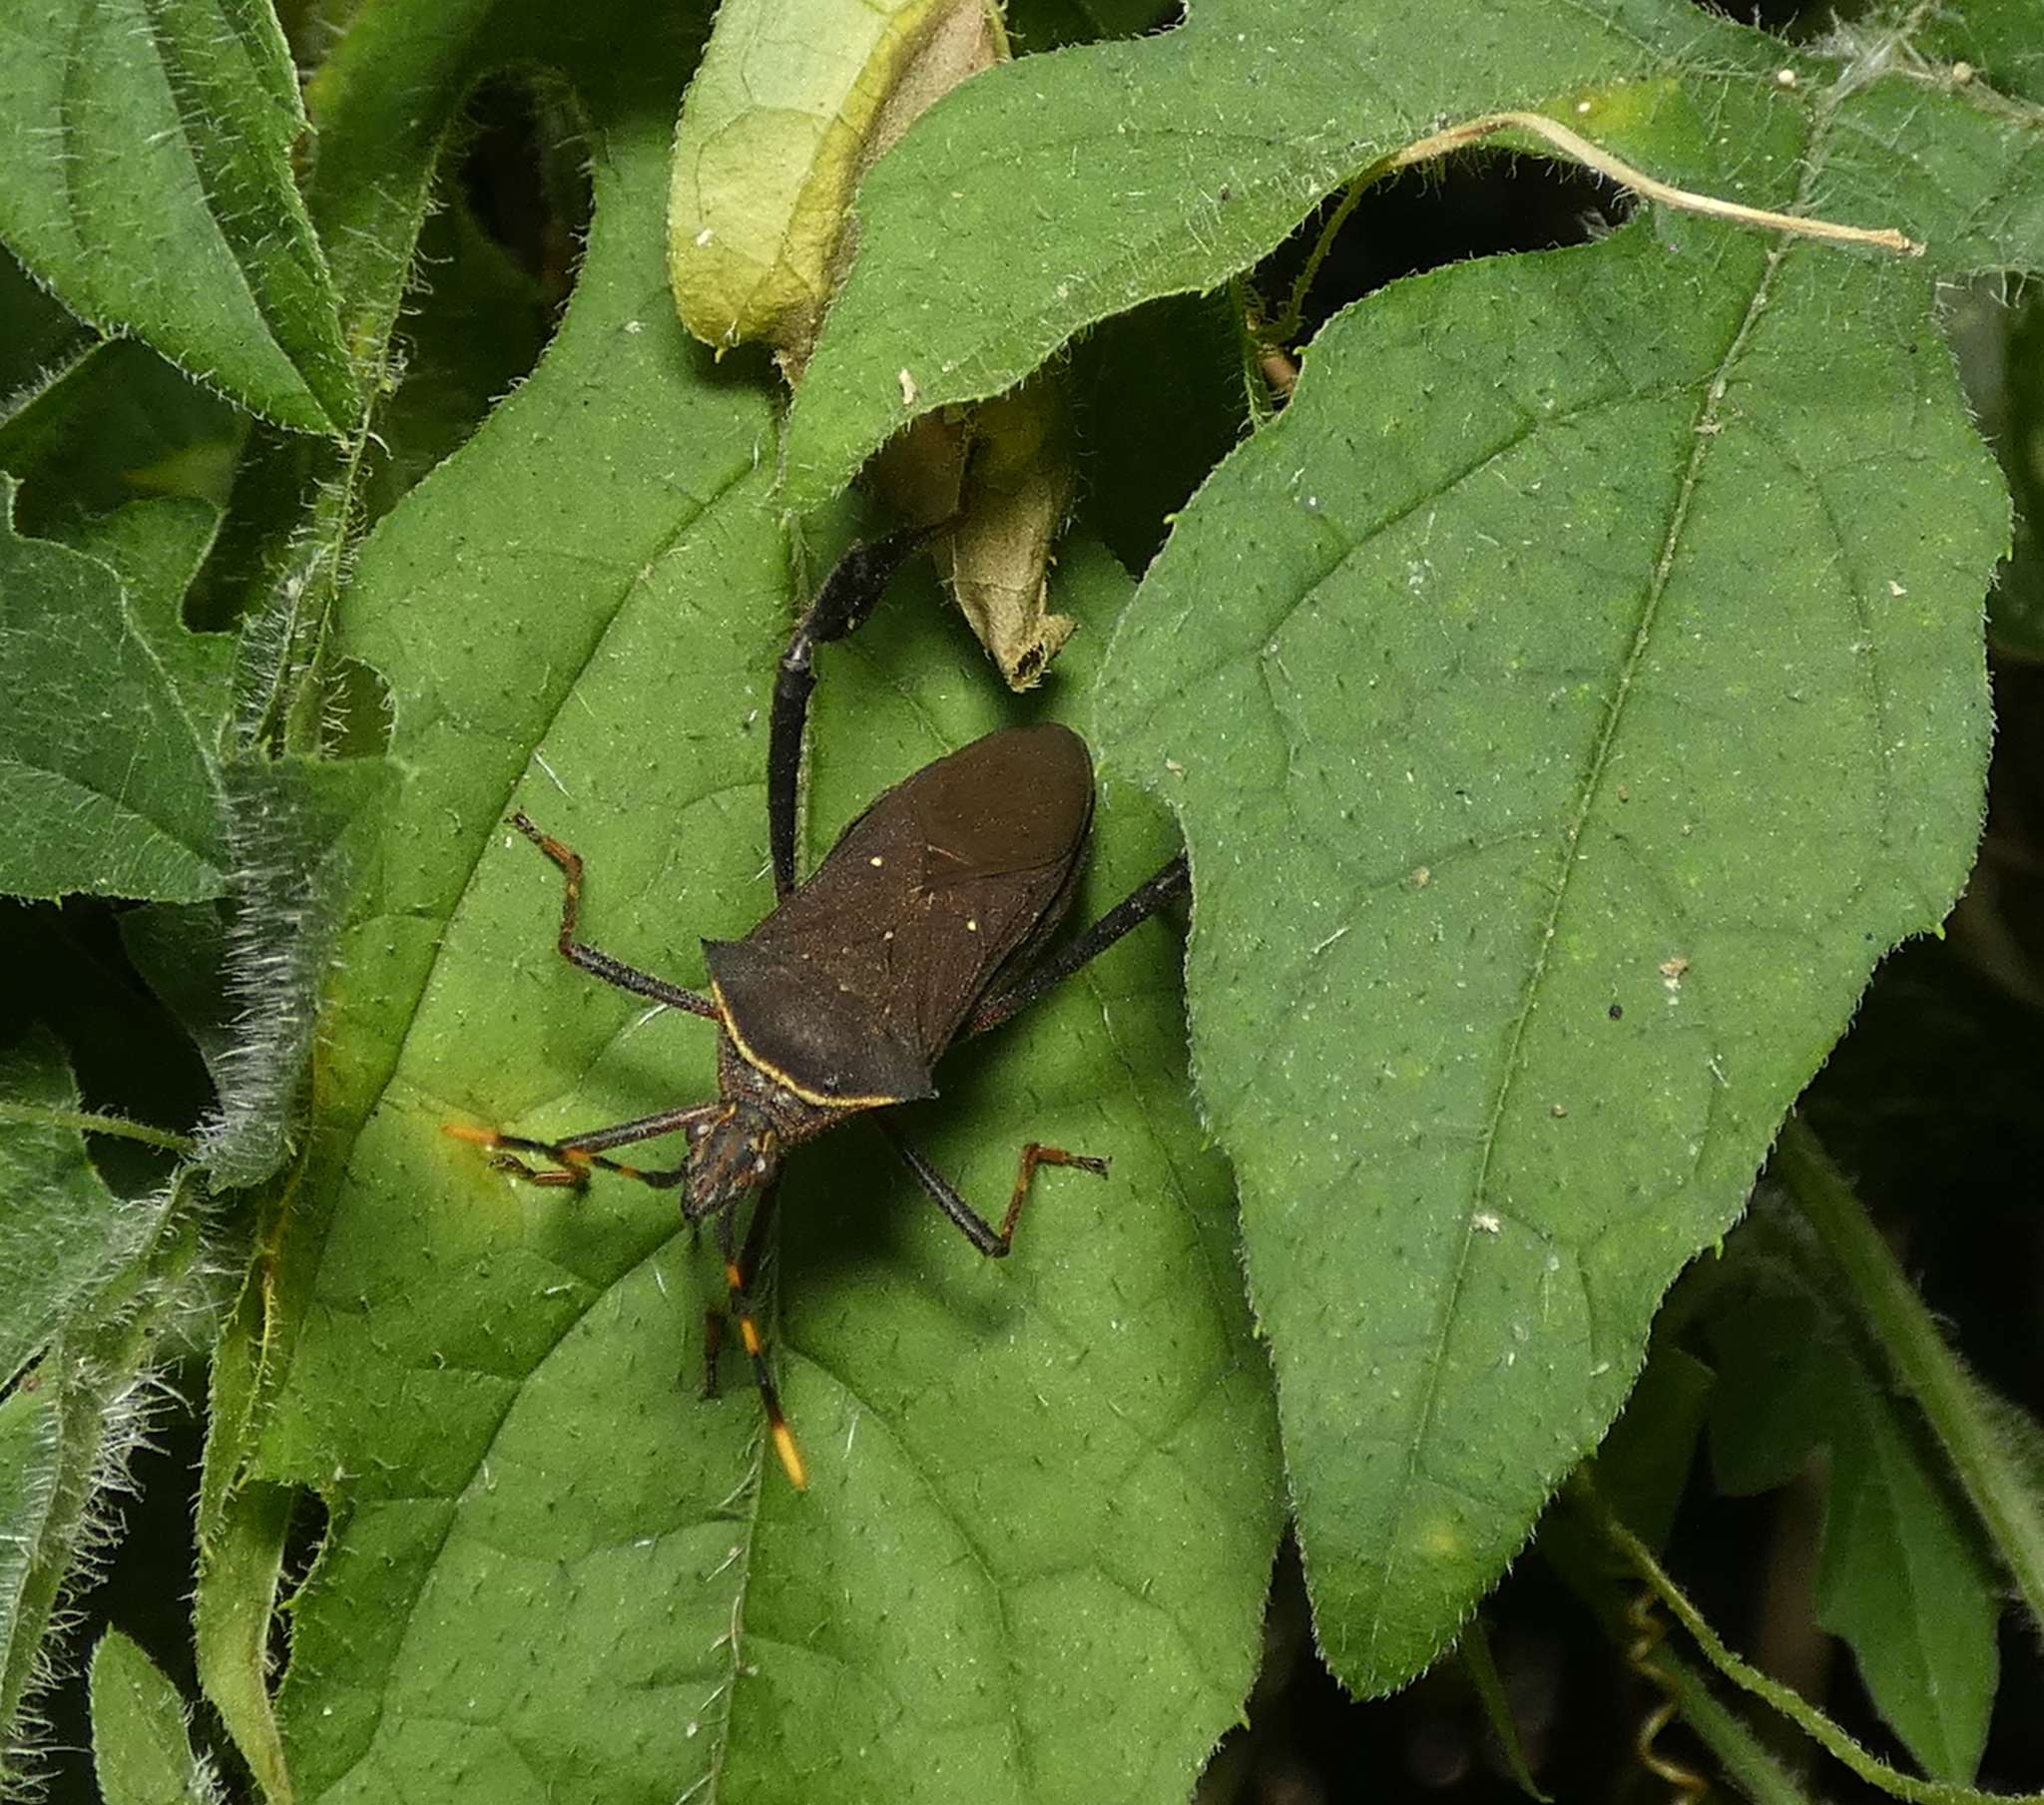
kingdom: Animalia
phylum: Arthropoda
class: Insecta
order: Hemiptera
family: Coreidae
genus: Leptoglossus
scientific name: Leptoglossus gonagra
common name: Citron bug
